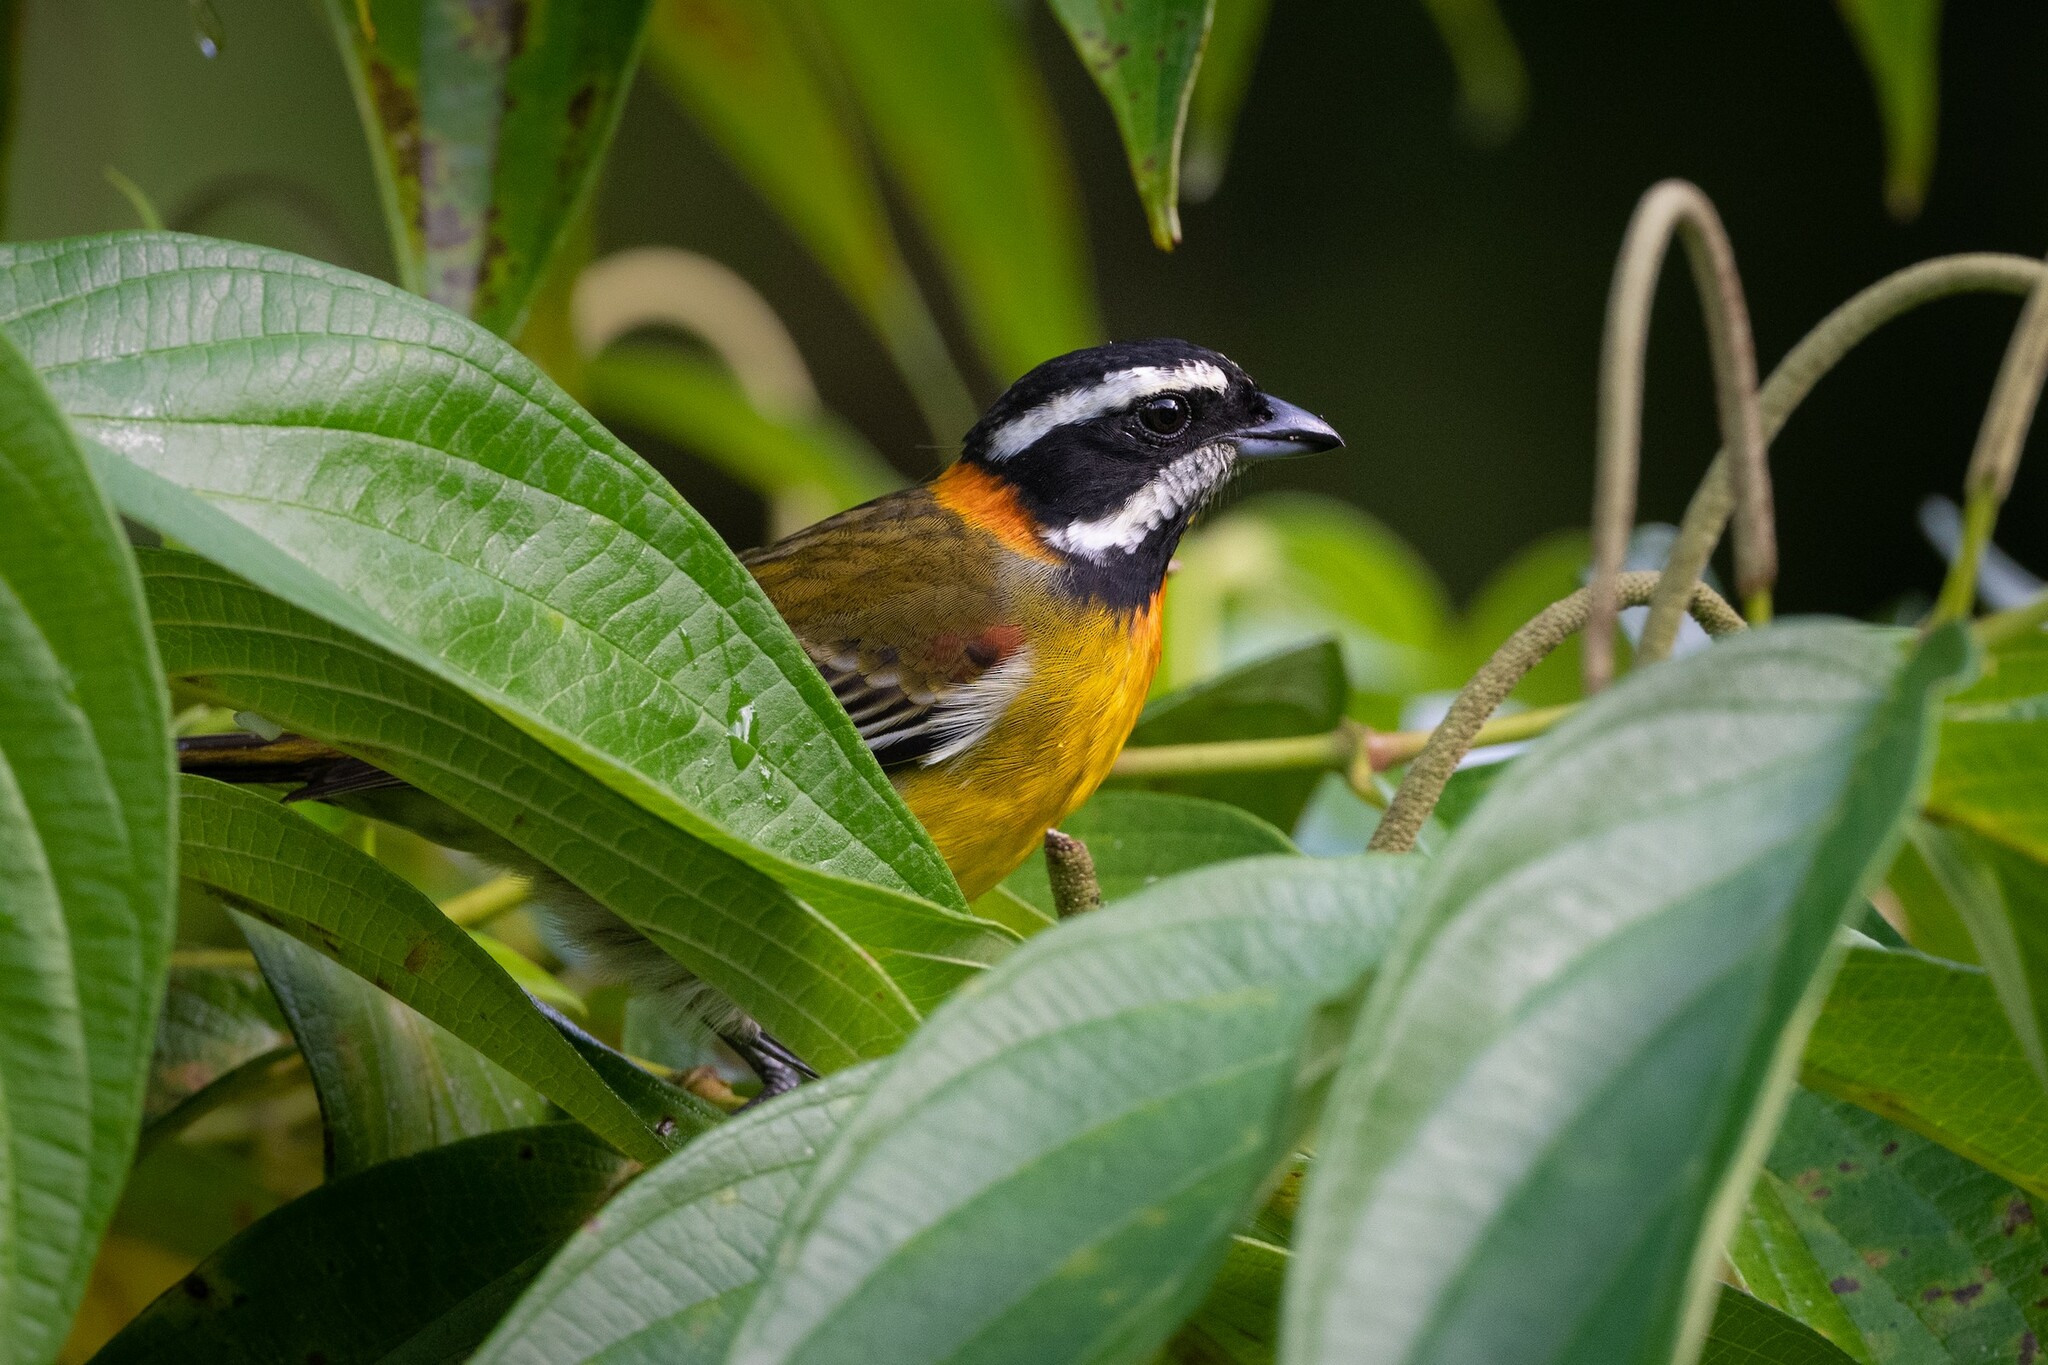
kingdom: Animalia
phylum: Chordata
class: Aves
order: Passeriformes
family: Spindalidae
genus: Spindalis
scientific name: Spindalis portoricensis
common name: Puerto rican spindalis
